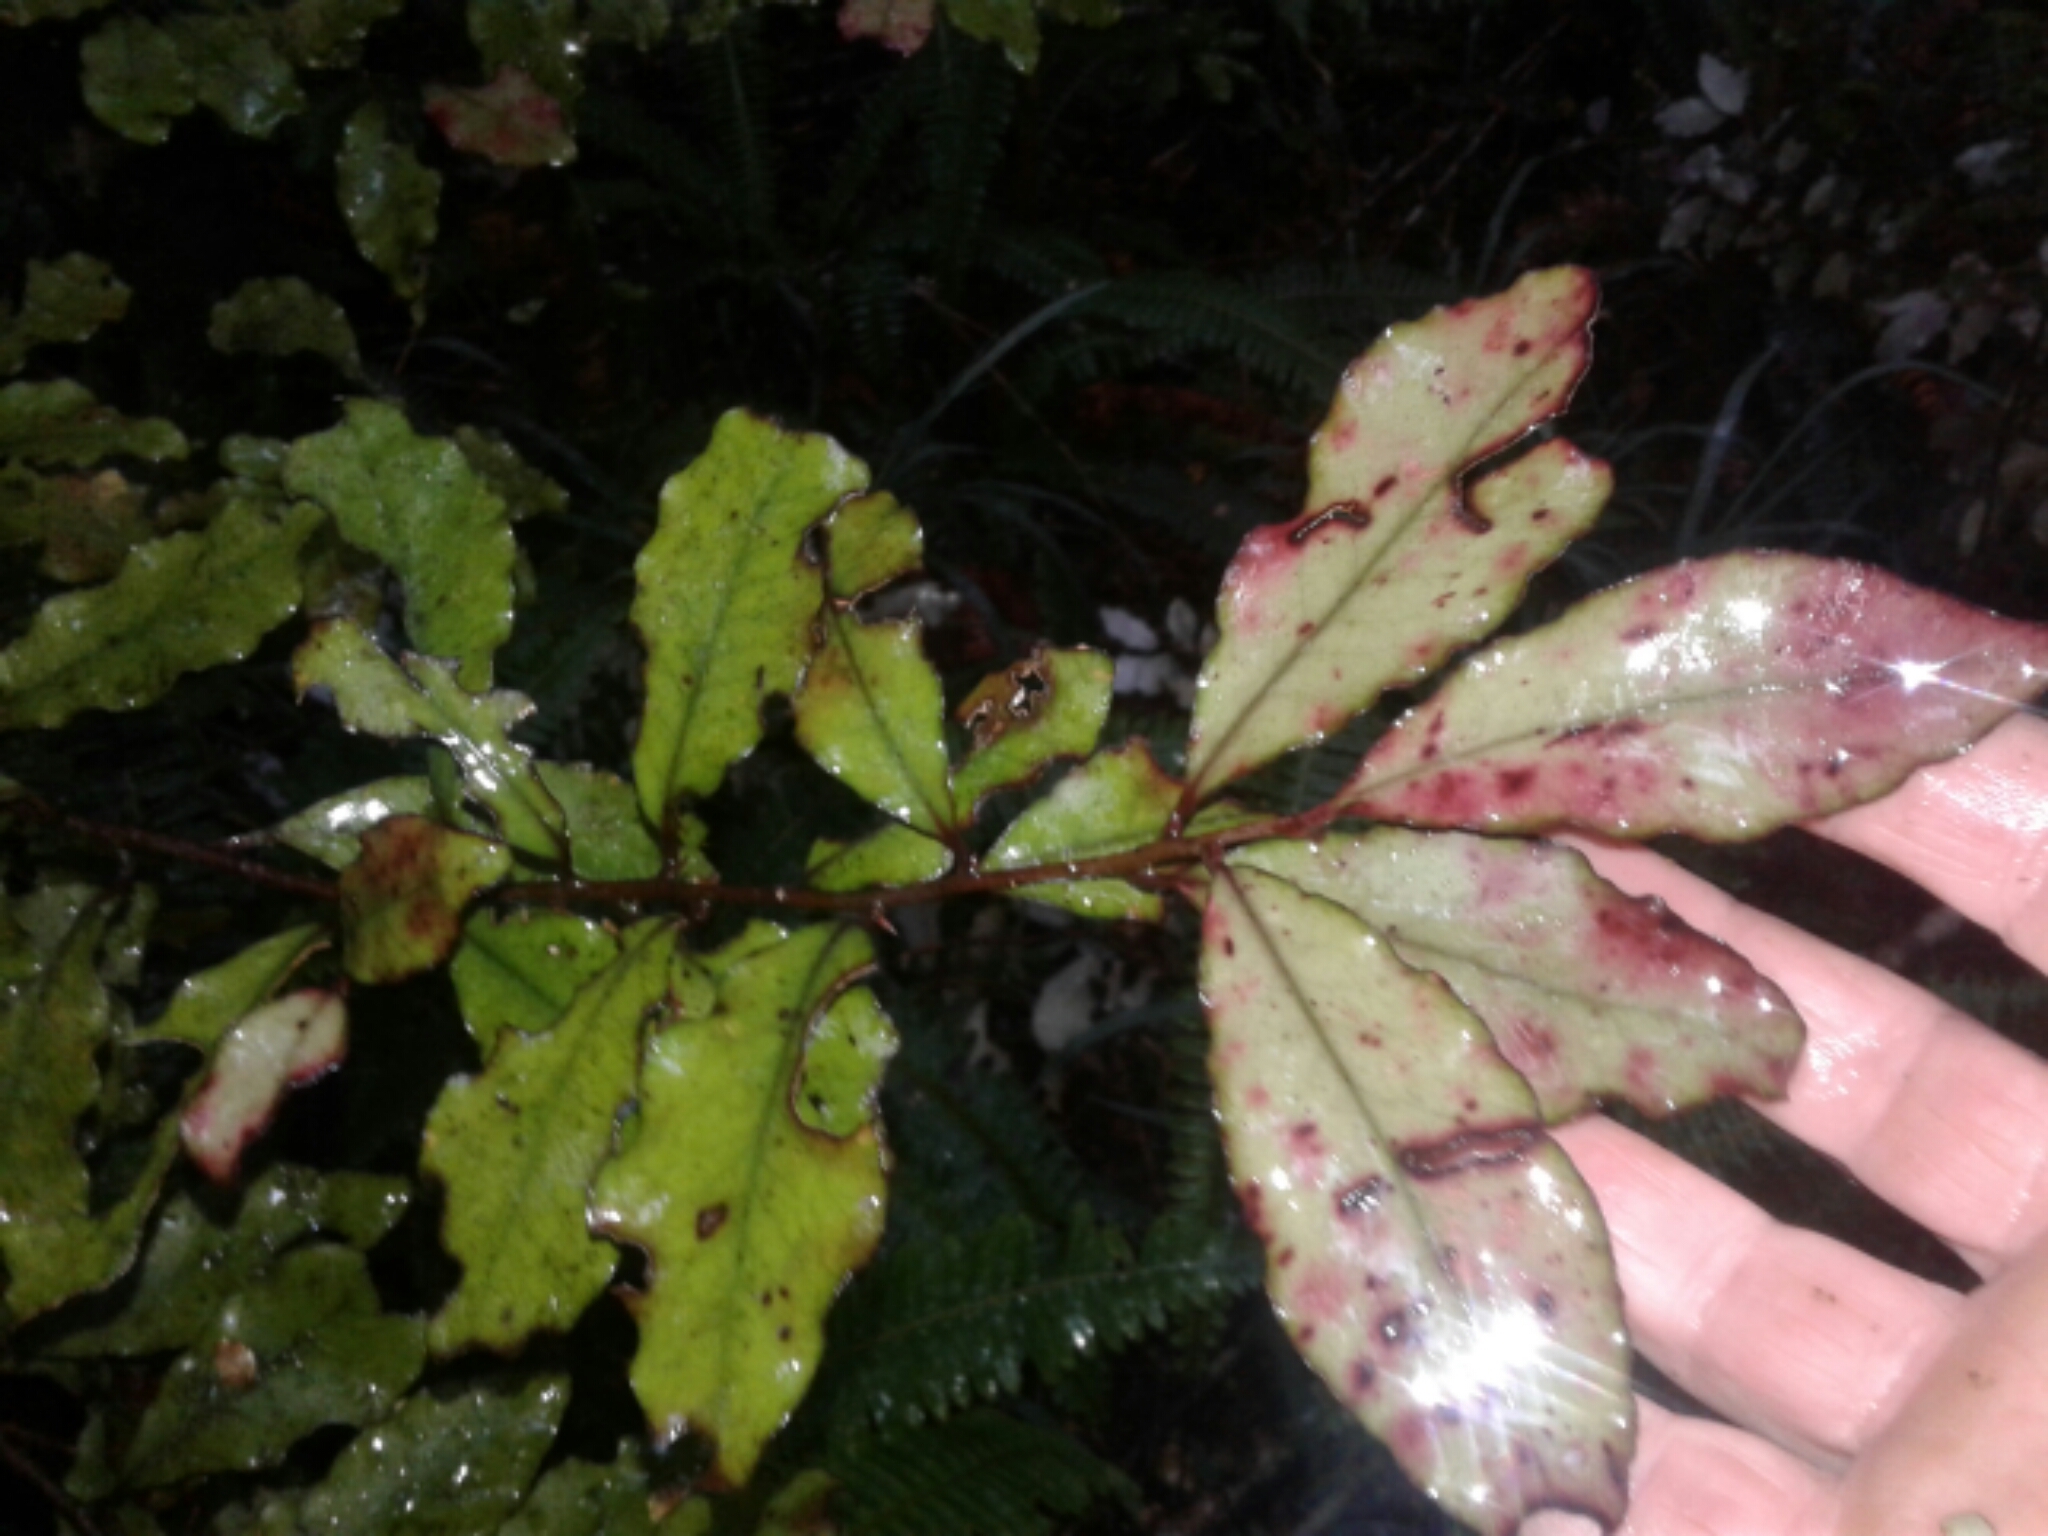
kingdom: Plantae
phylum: Tracheophyta
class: Magnoliopsida
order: Canellales
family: Winteraceae
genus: Pseudowintera
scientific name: Pseudowintera colorata
